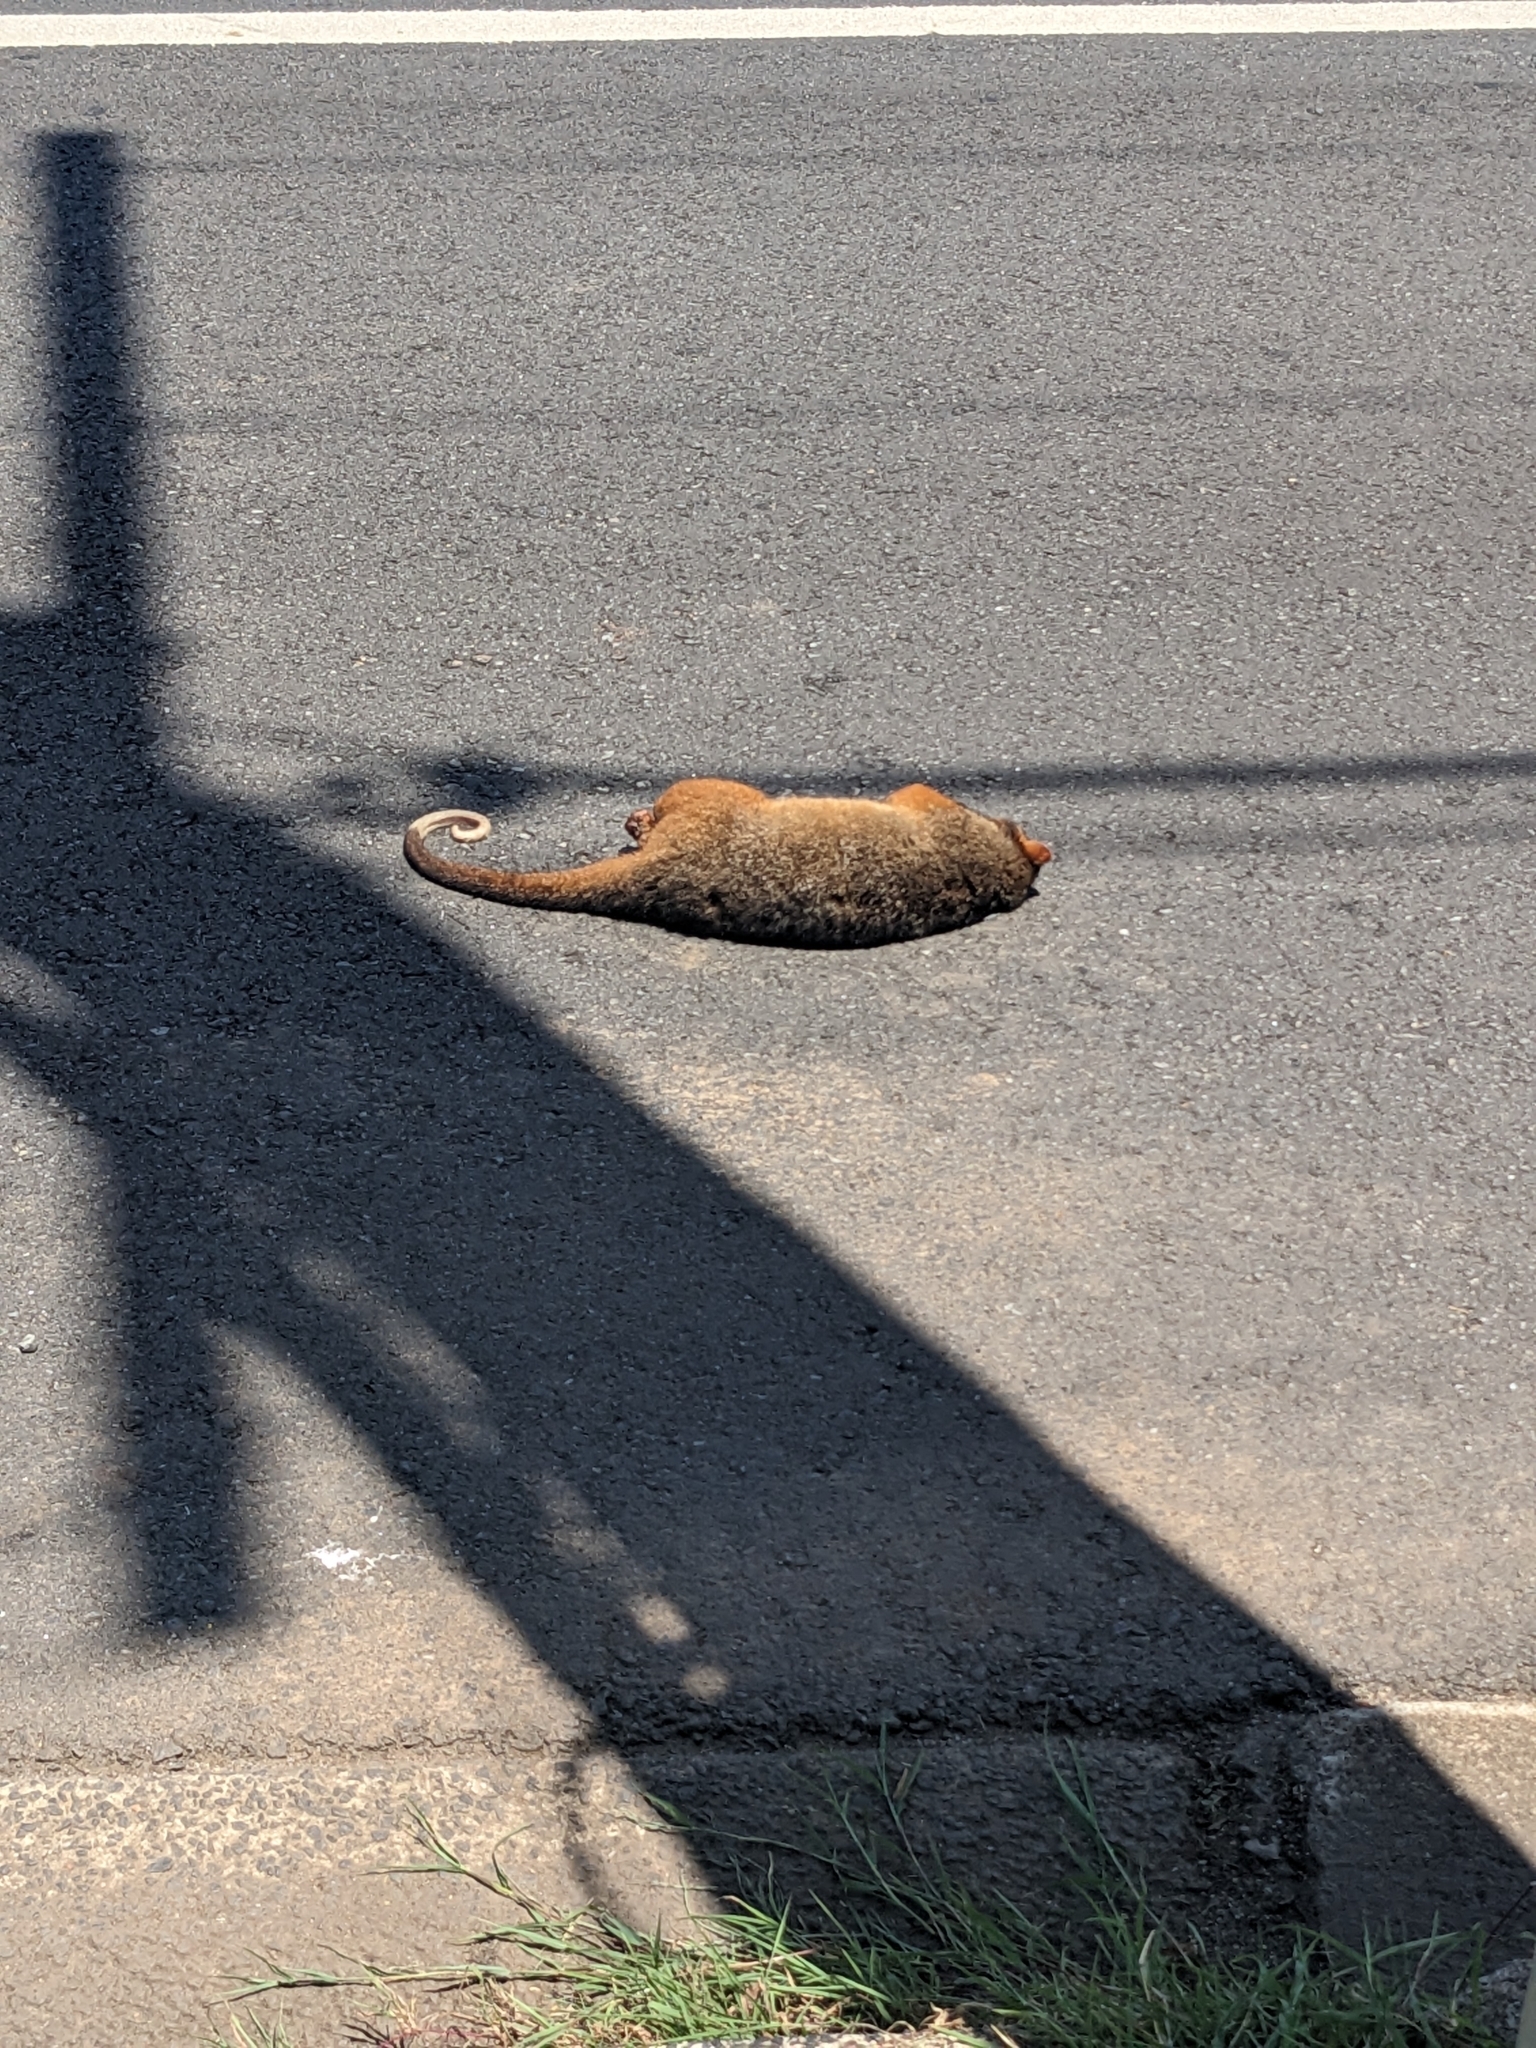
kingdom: Animalia
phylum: Chordata
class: Mammalia
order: Diprotodontia
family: Pseudocheiridae
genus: Pseudocheirus
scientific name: Pseudocheirus peregrinus
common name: Common ringtail possum
